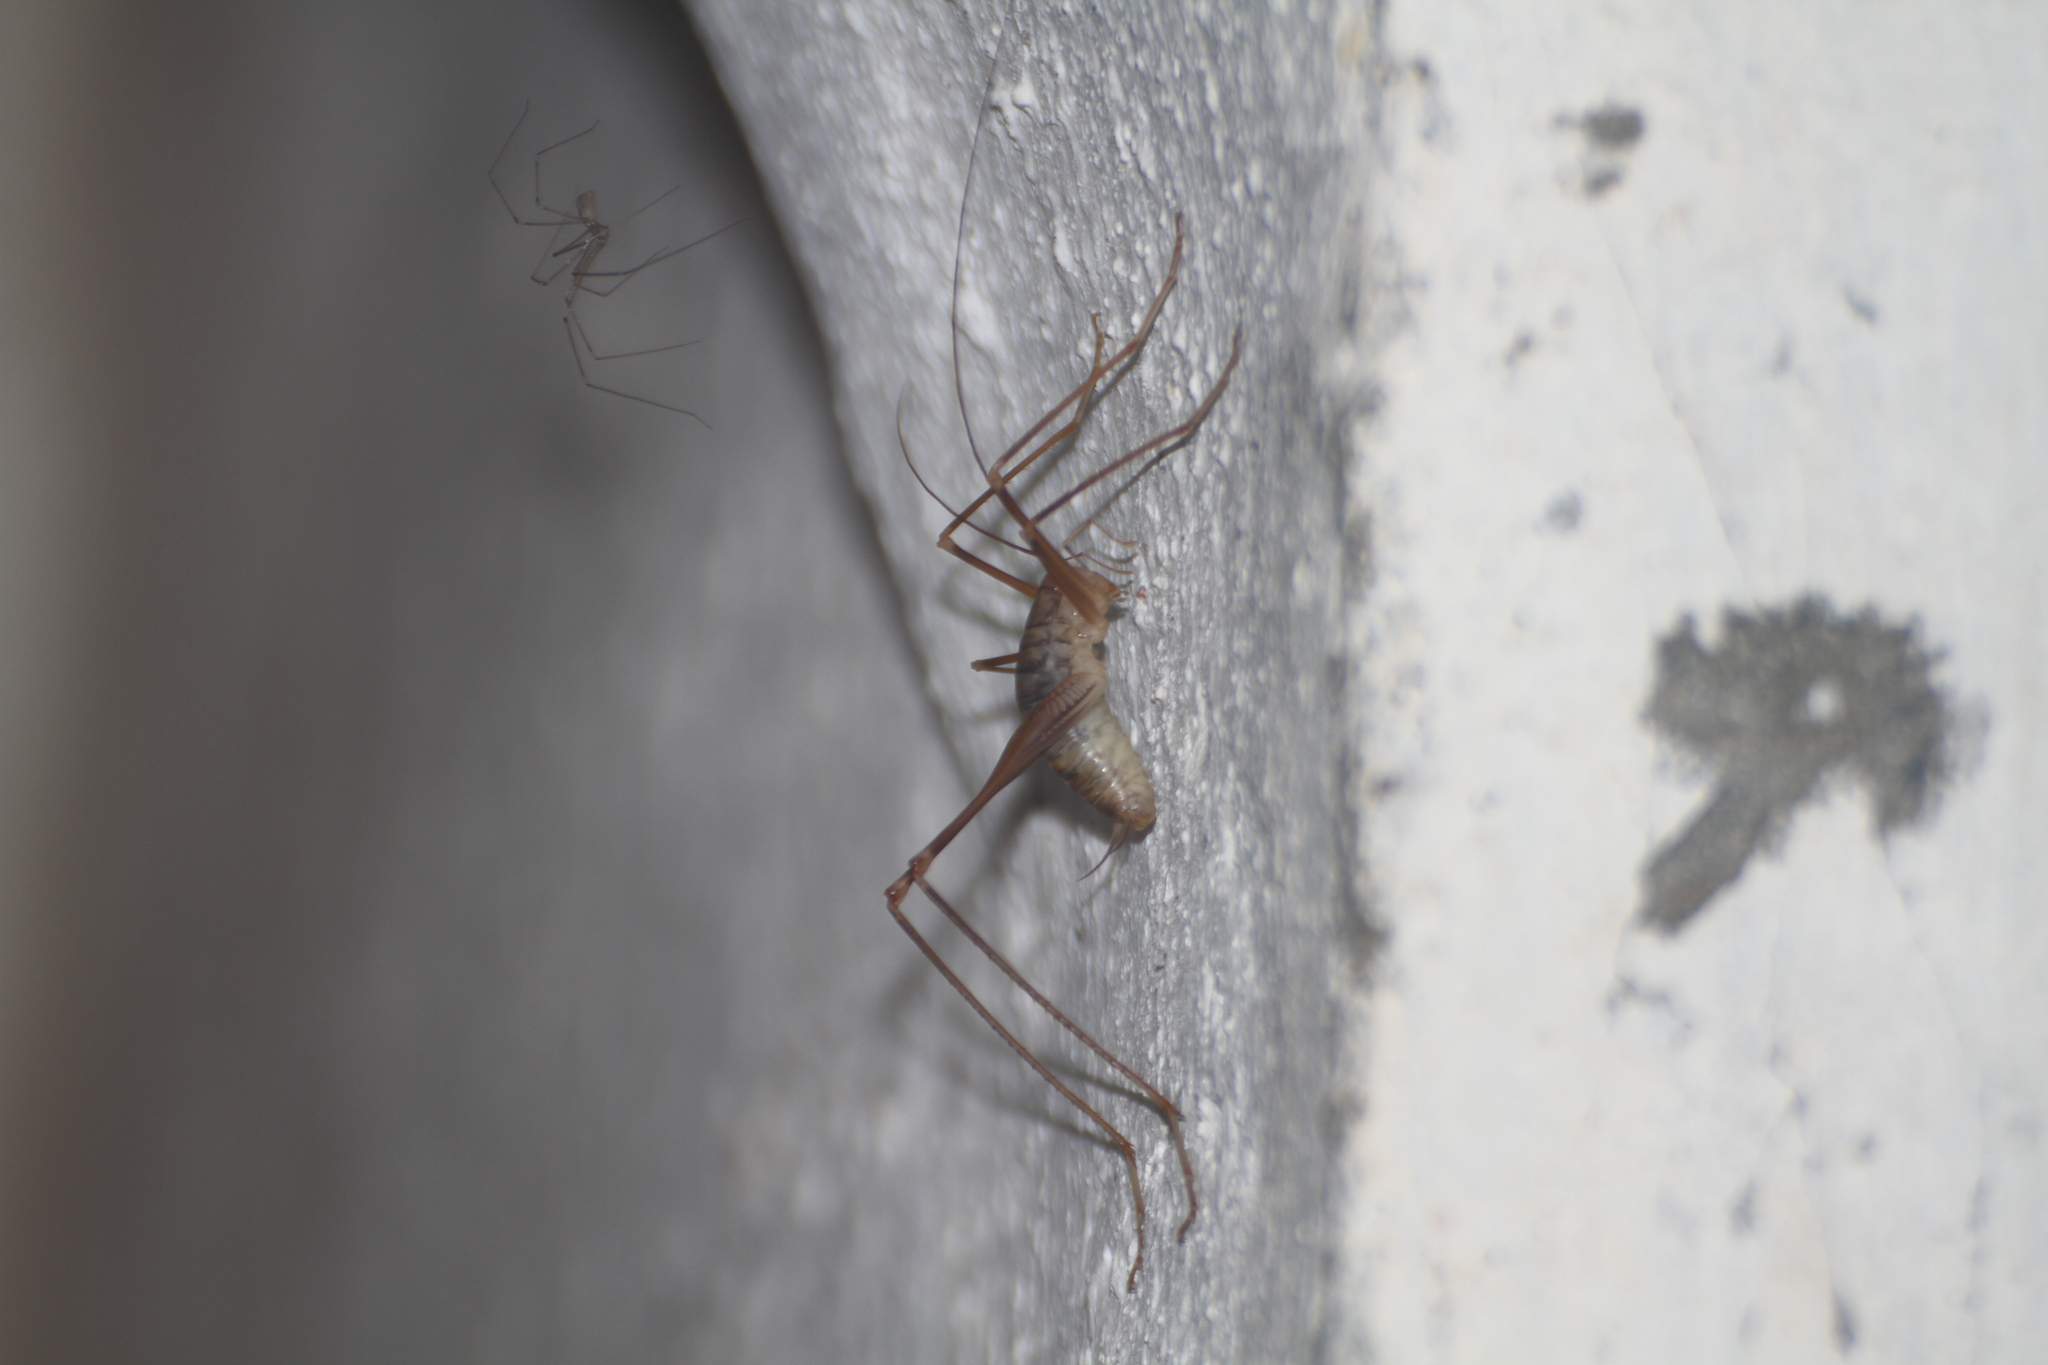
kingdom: Animalia
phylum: Arthropoda
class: Insecta
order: Orthoptera
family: Rhaphidophoridae
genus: Dolichopoda
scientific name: Dolichopoda azami
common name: Azam's cave-cricket
